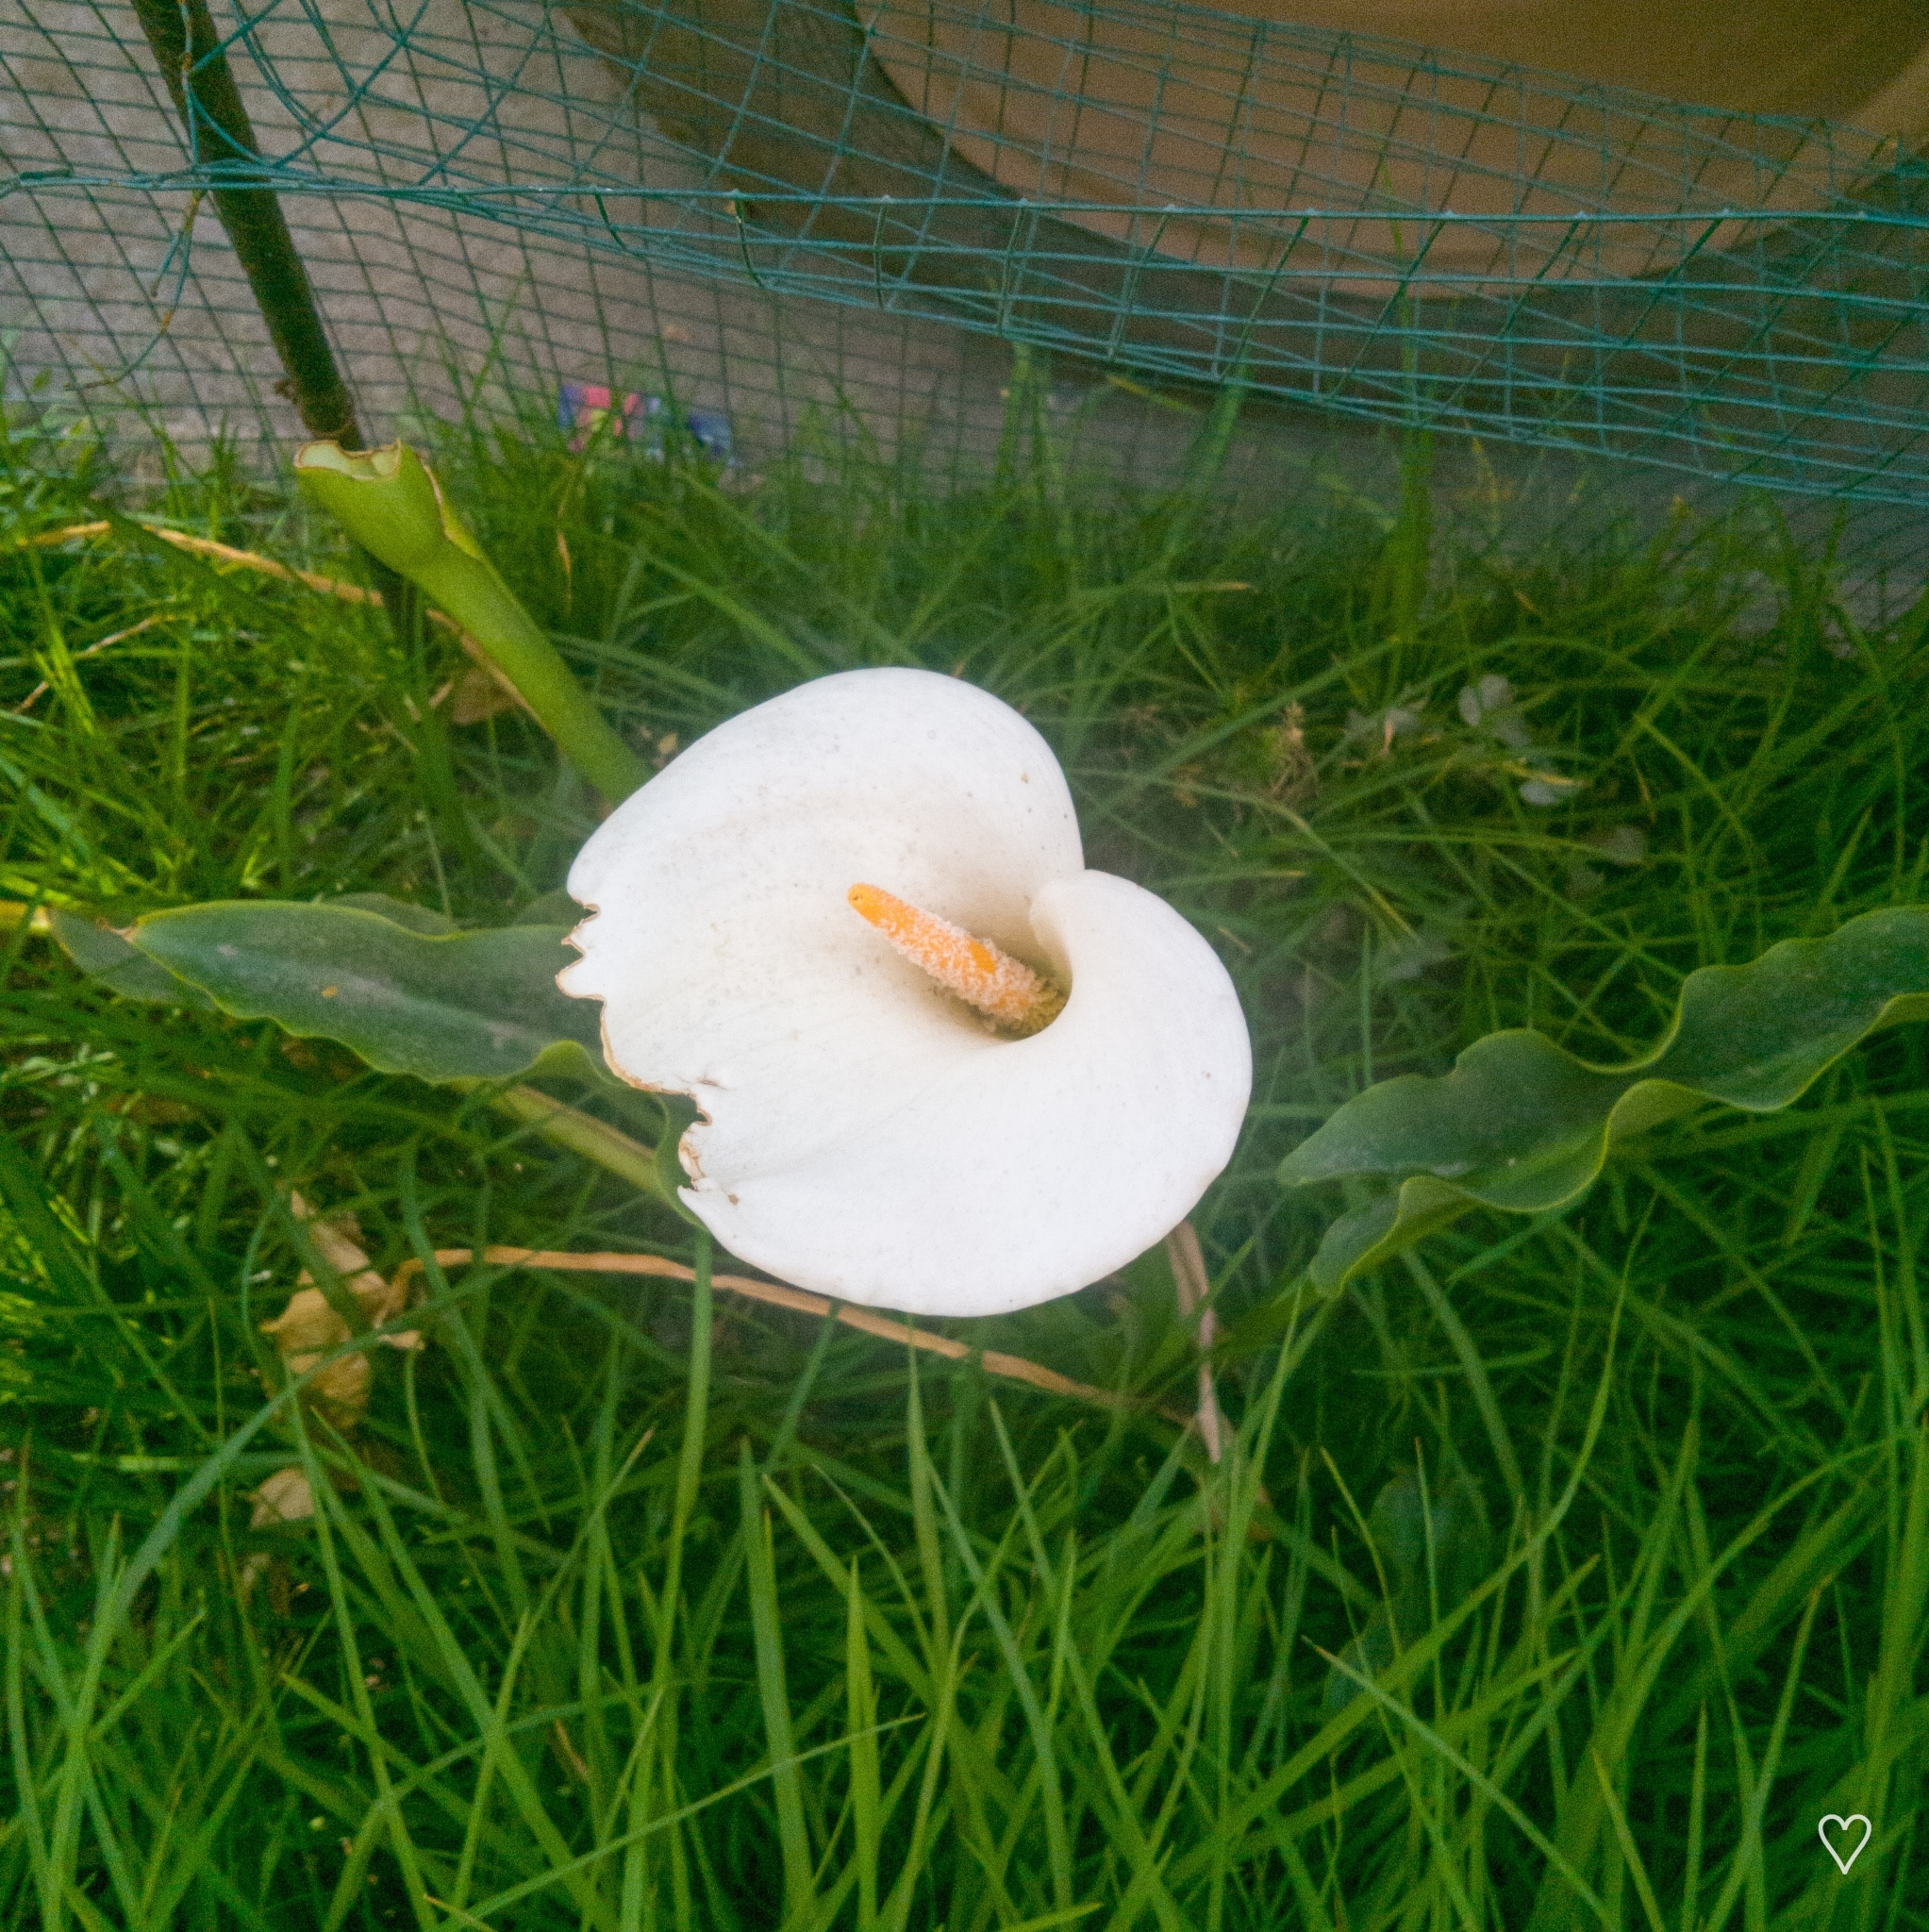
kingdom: Plantae
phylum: Tracheophyta
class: Liliopsida
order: Alismatales
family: Araceae
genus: Zantedeschia
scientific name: Zantedeschia aethiopica
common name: Altar-lily
